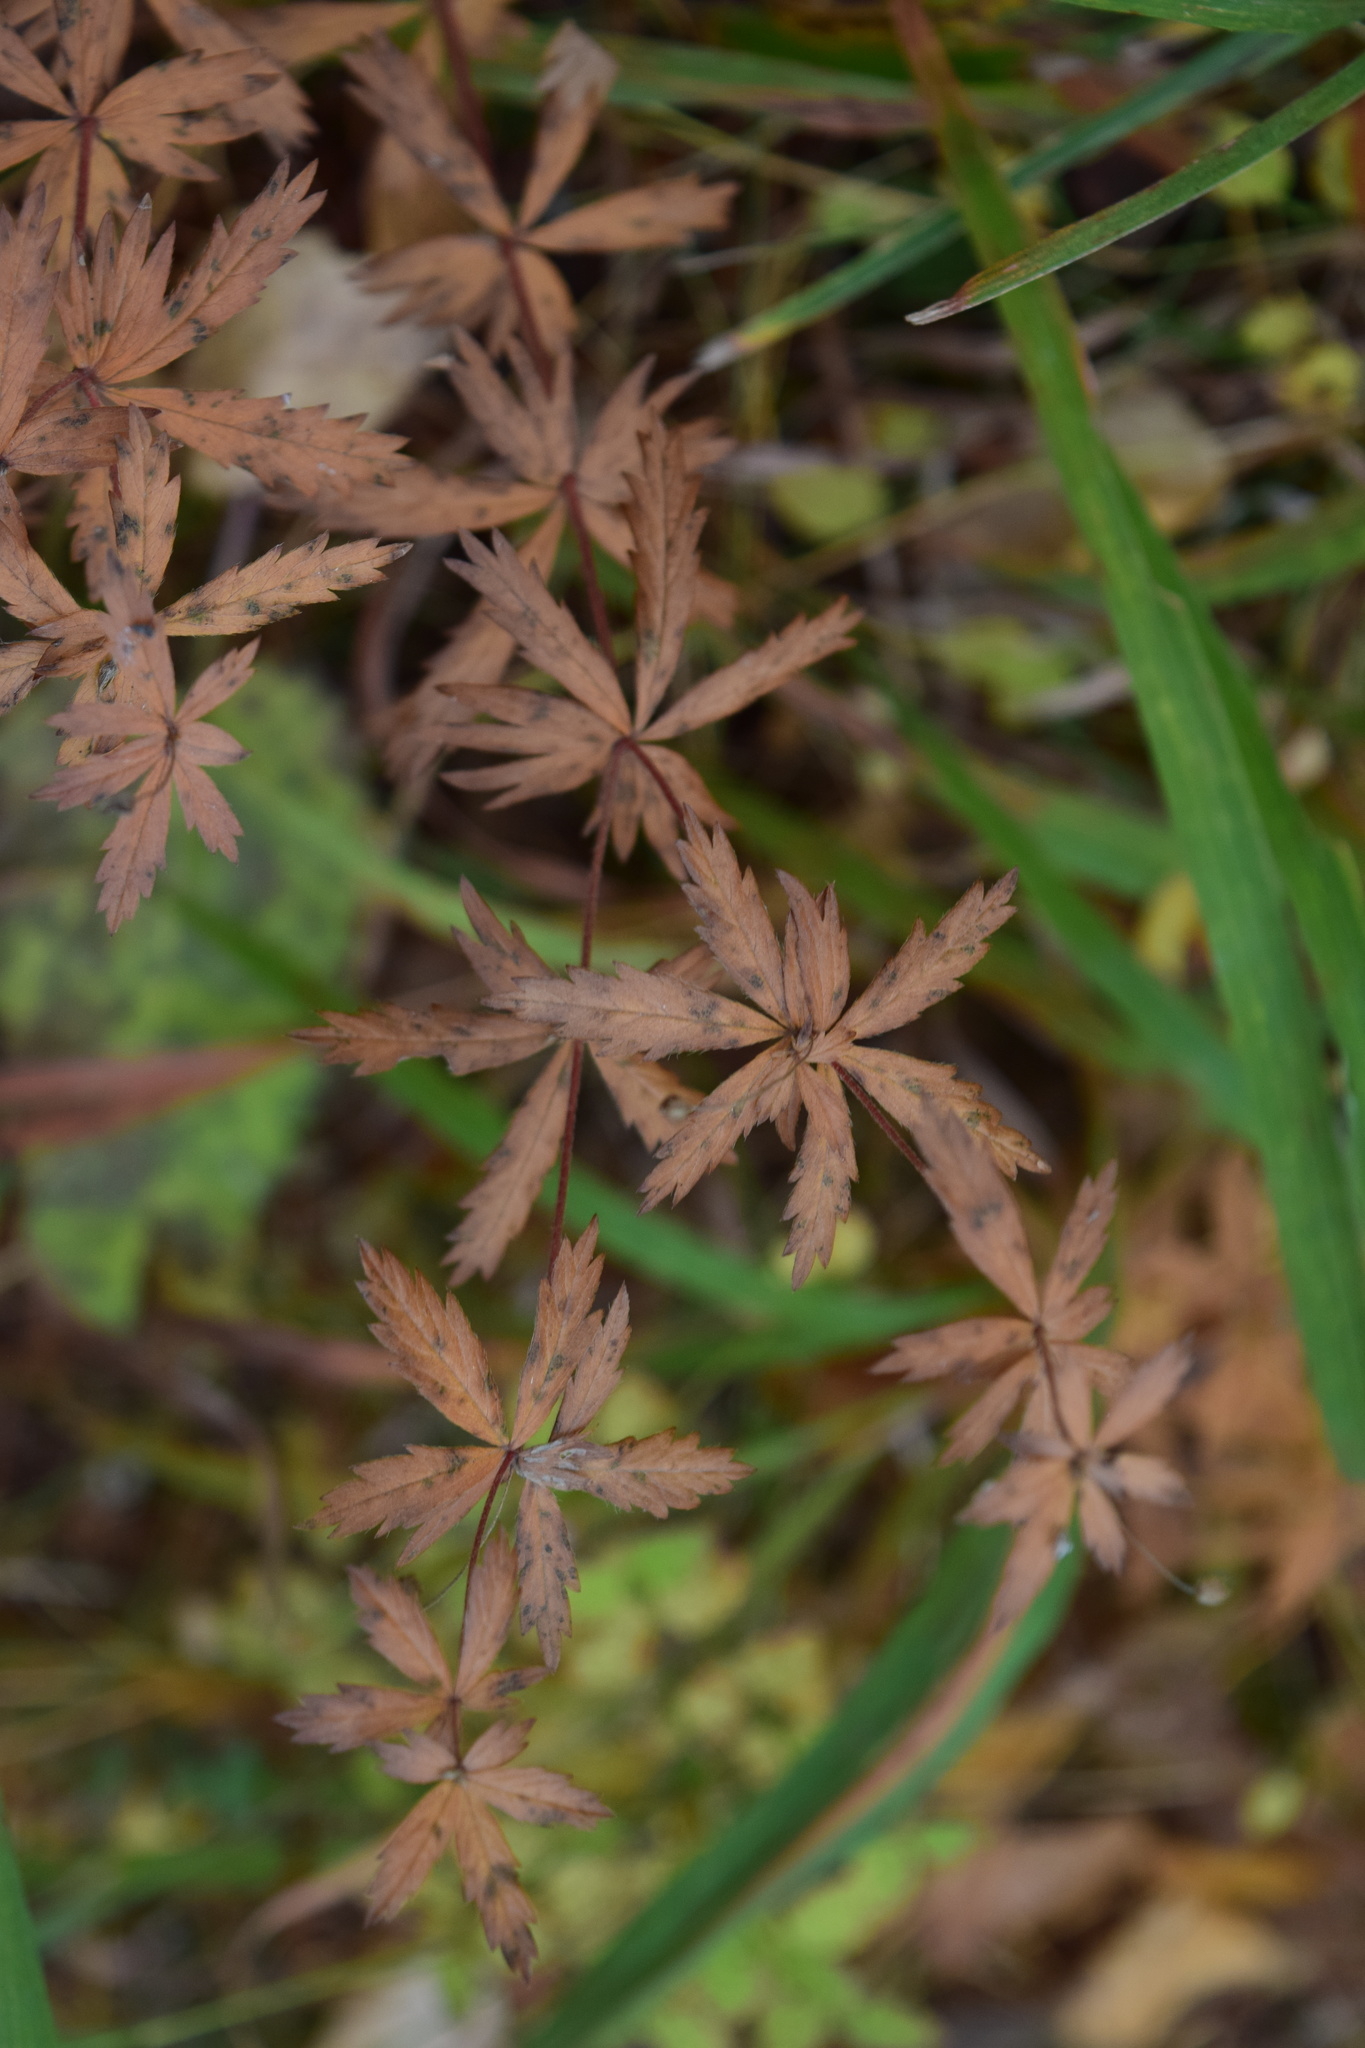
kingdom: Plantae
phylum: Tracheophyta
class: Magnoliopsida
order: Rosales
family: Rosaceae
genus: Potentilla
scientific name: Potentilla erecta
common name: Tormentil
